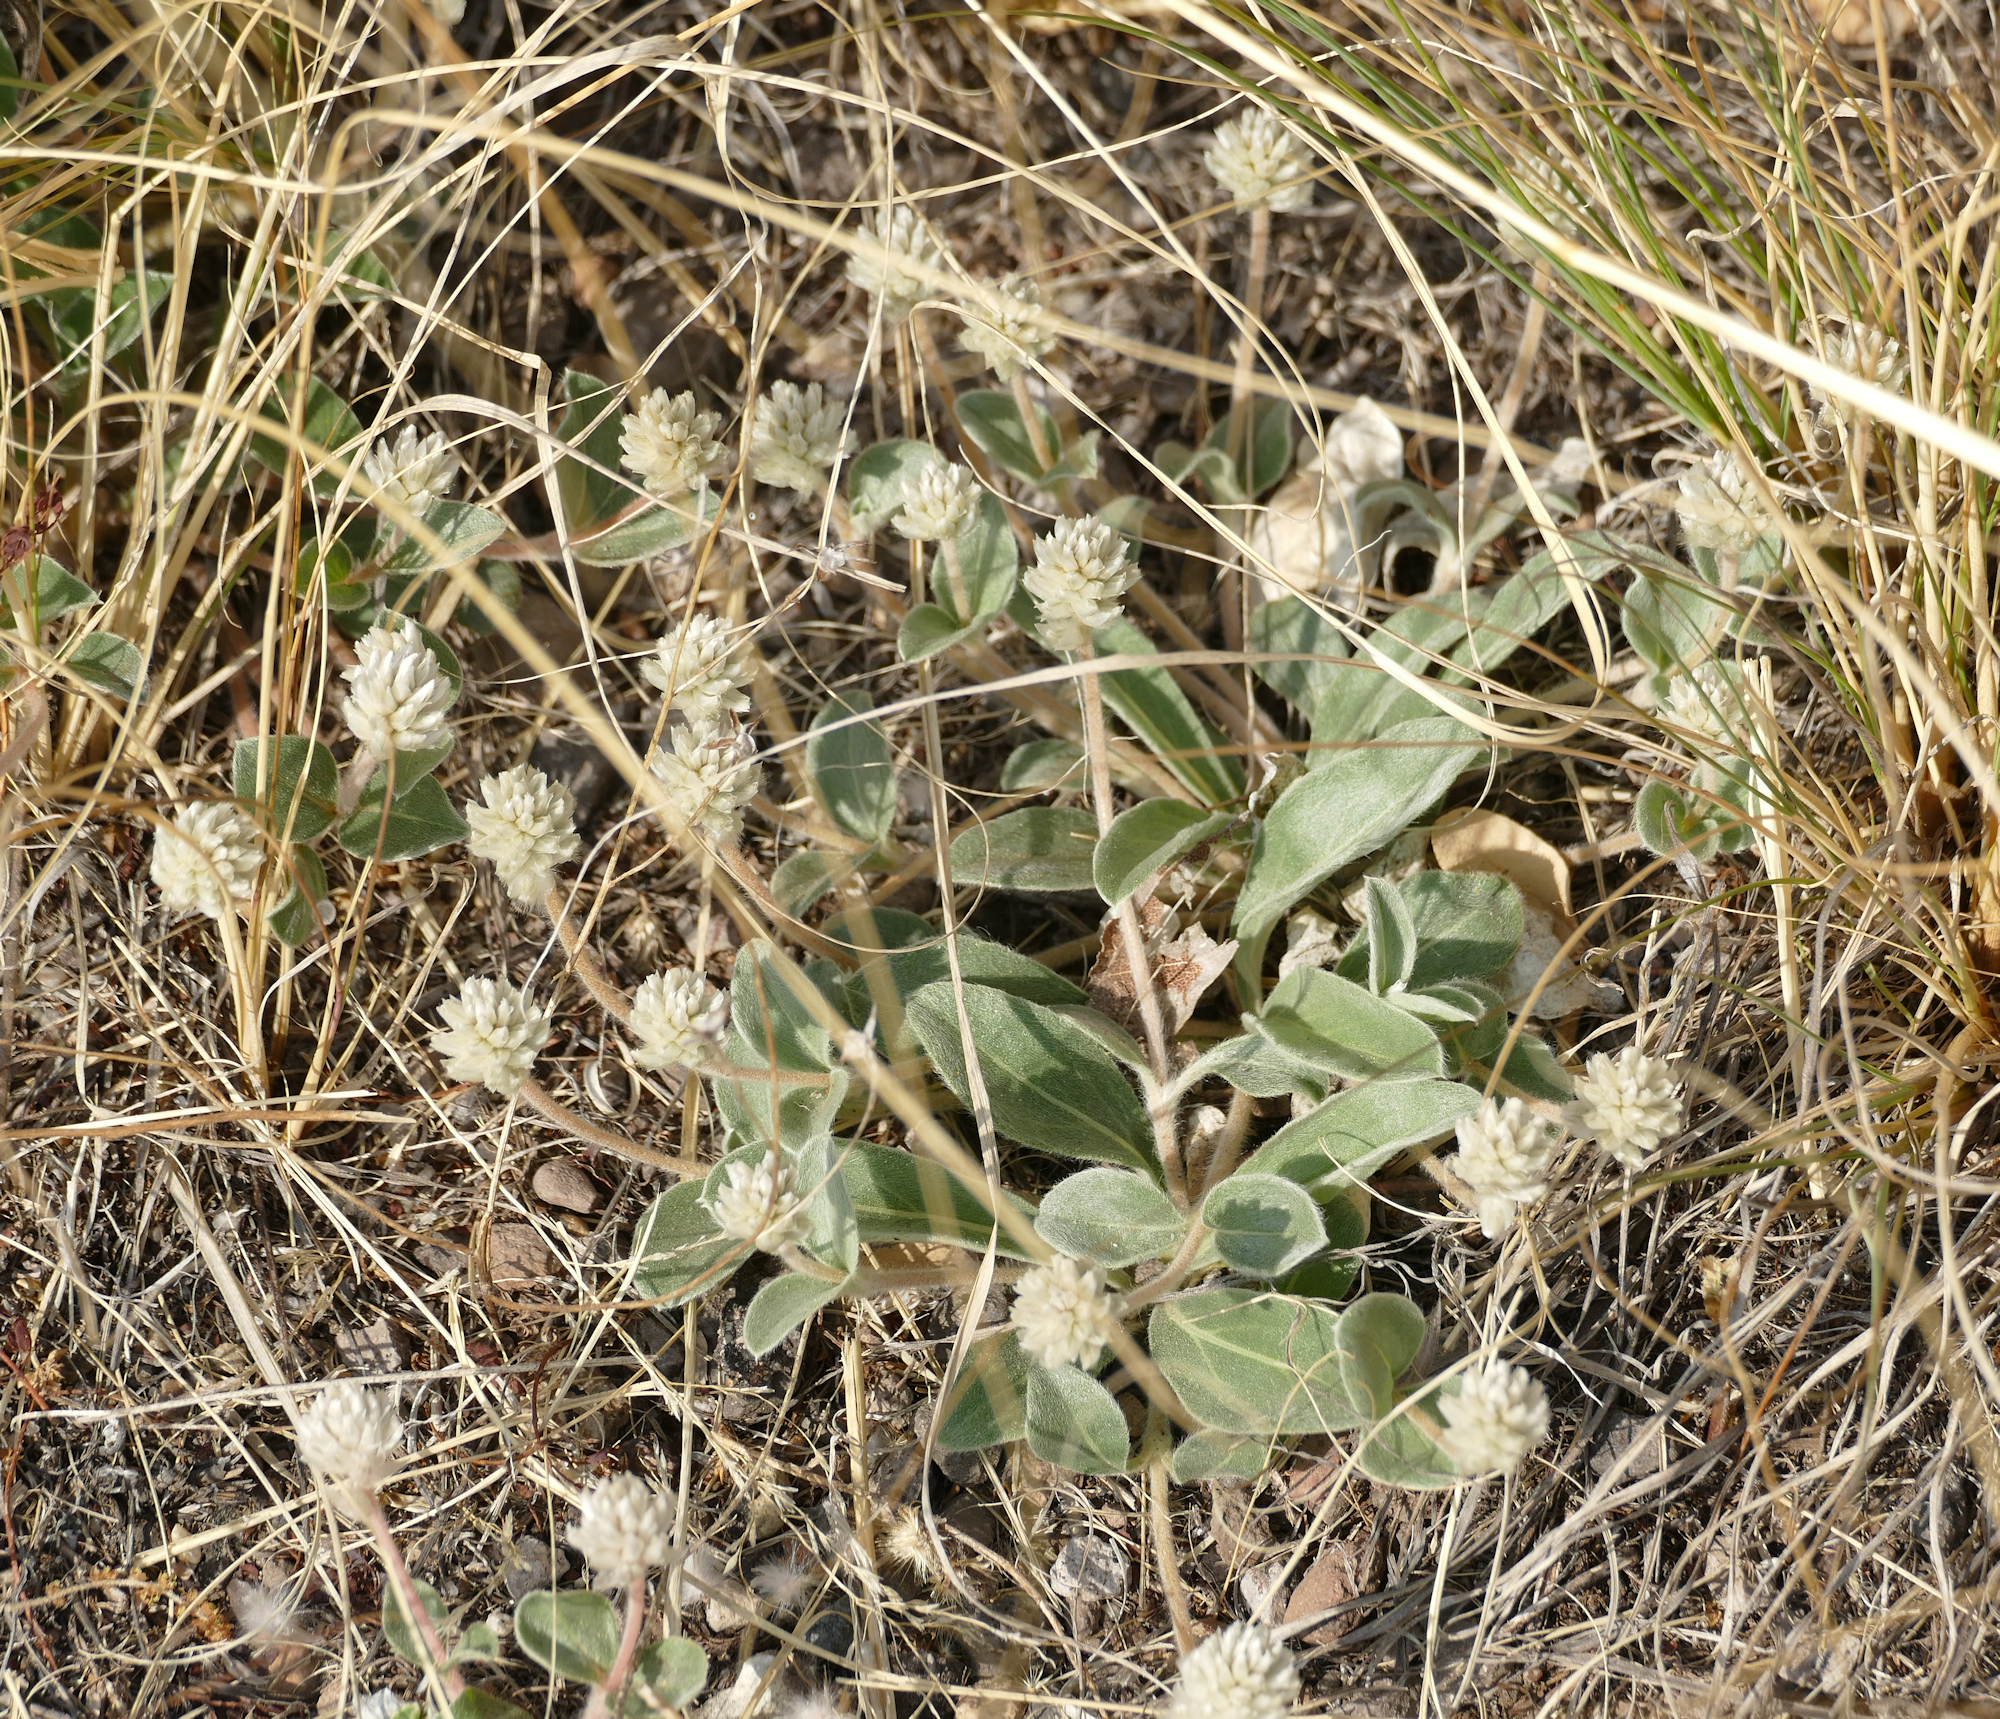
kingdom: Plantae
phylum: Tracheophyta
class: Magnoliopsida
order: Caryophyllales
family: Amaranthaceae
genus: Gomphrena
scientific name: Gomphrena caespitosa
